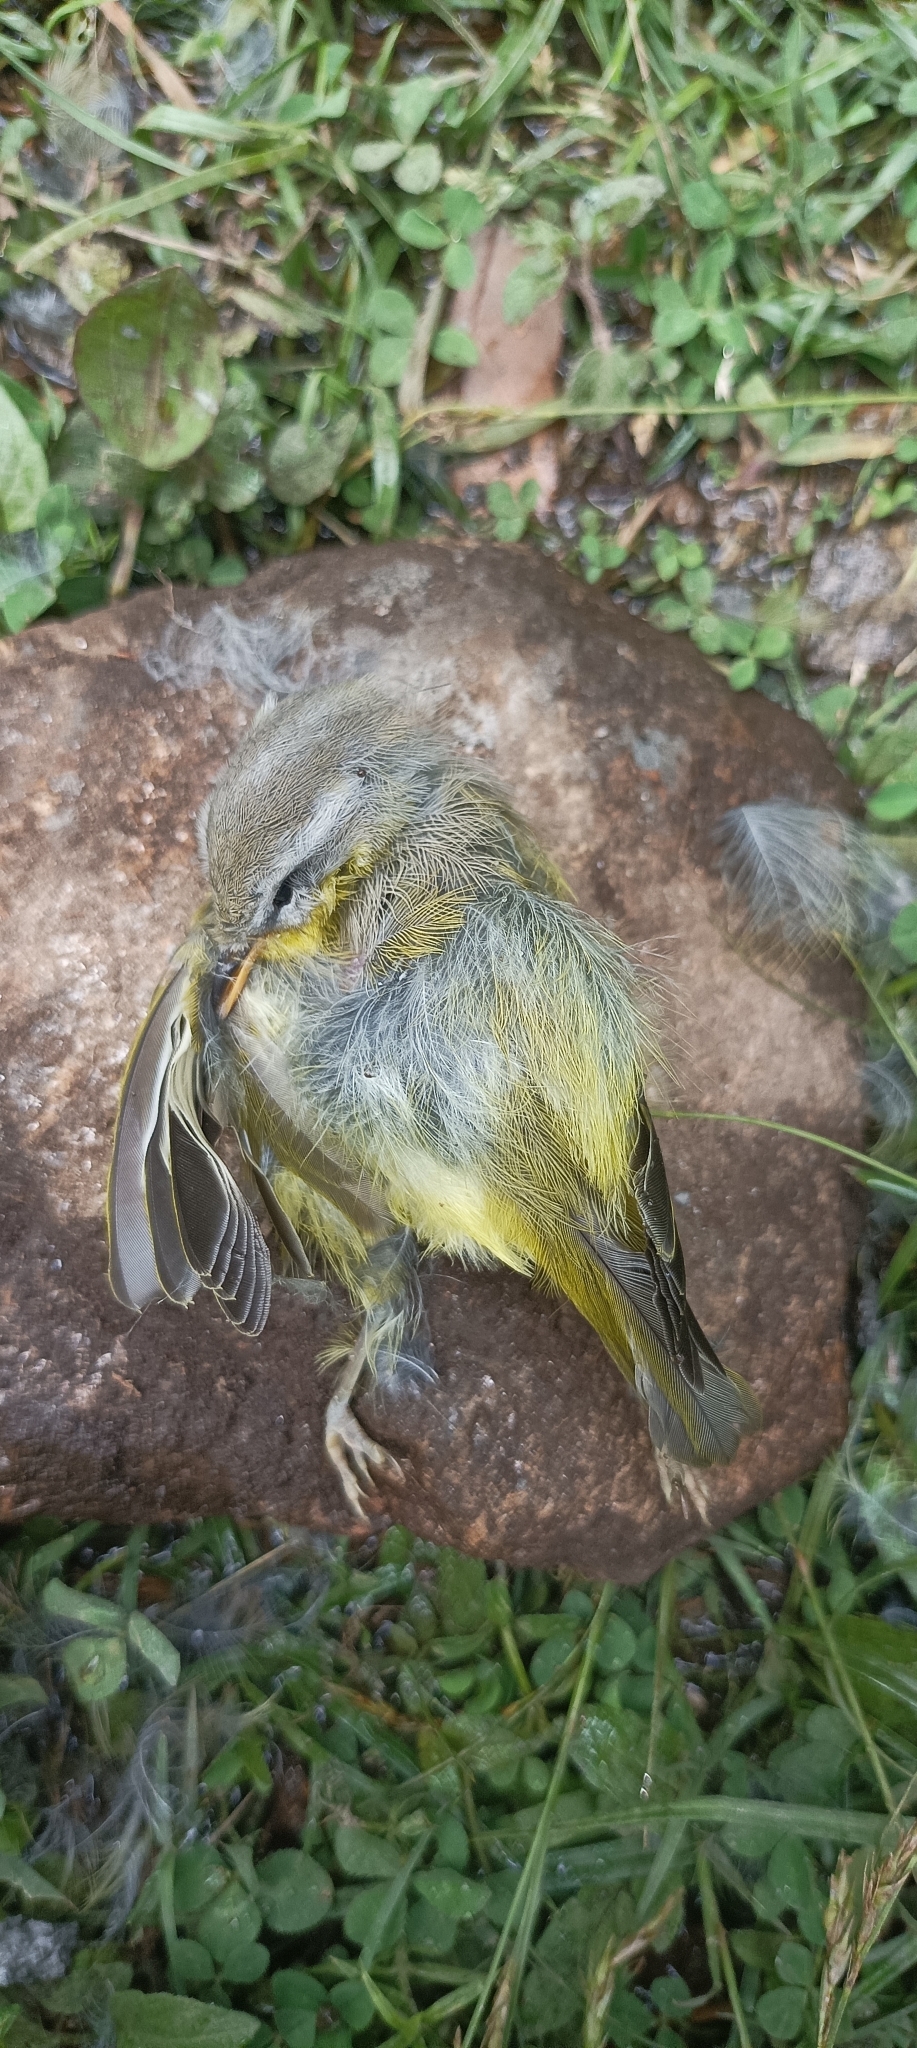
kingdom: Animalia
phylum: Chordata
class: Aves
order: Passeriformes
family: Phylloscopidae
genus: Phylloscopus
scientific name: Phylloscopus xanthoschistos
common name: Grey-hooded warbler
